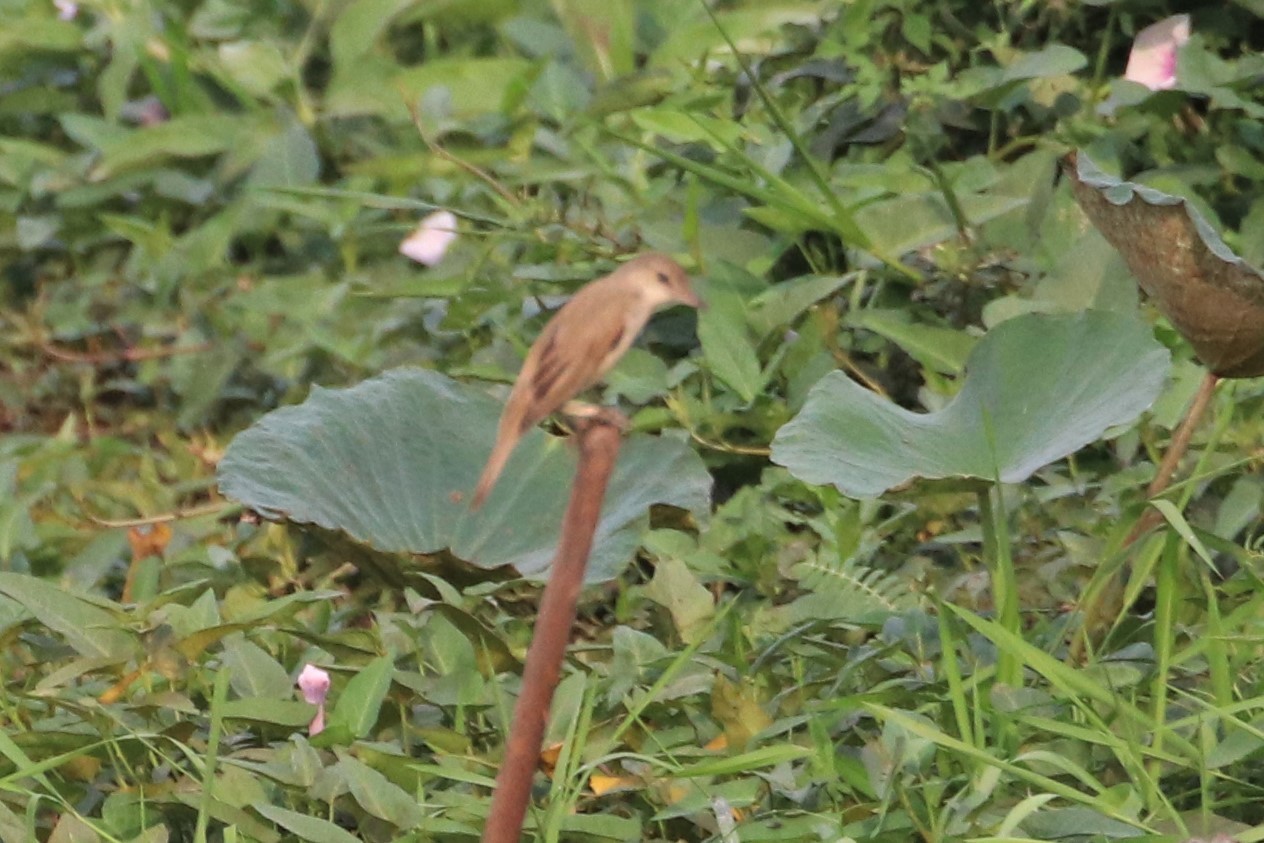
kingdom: Animalia
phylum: Chordata
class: Aves
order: Passeriformes
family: Acrocephalidae
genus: Acrocephalus
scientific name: Acrocephalus orientalis
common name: Oriental reed warbler
